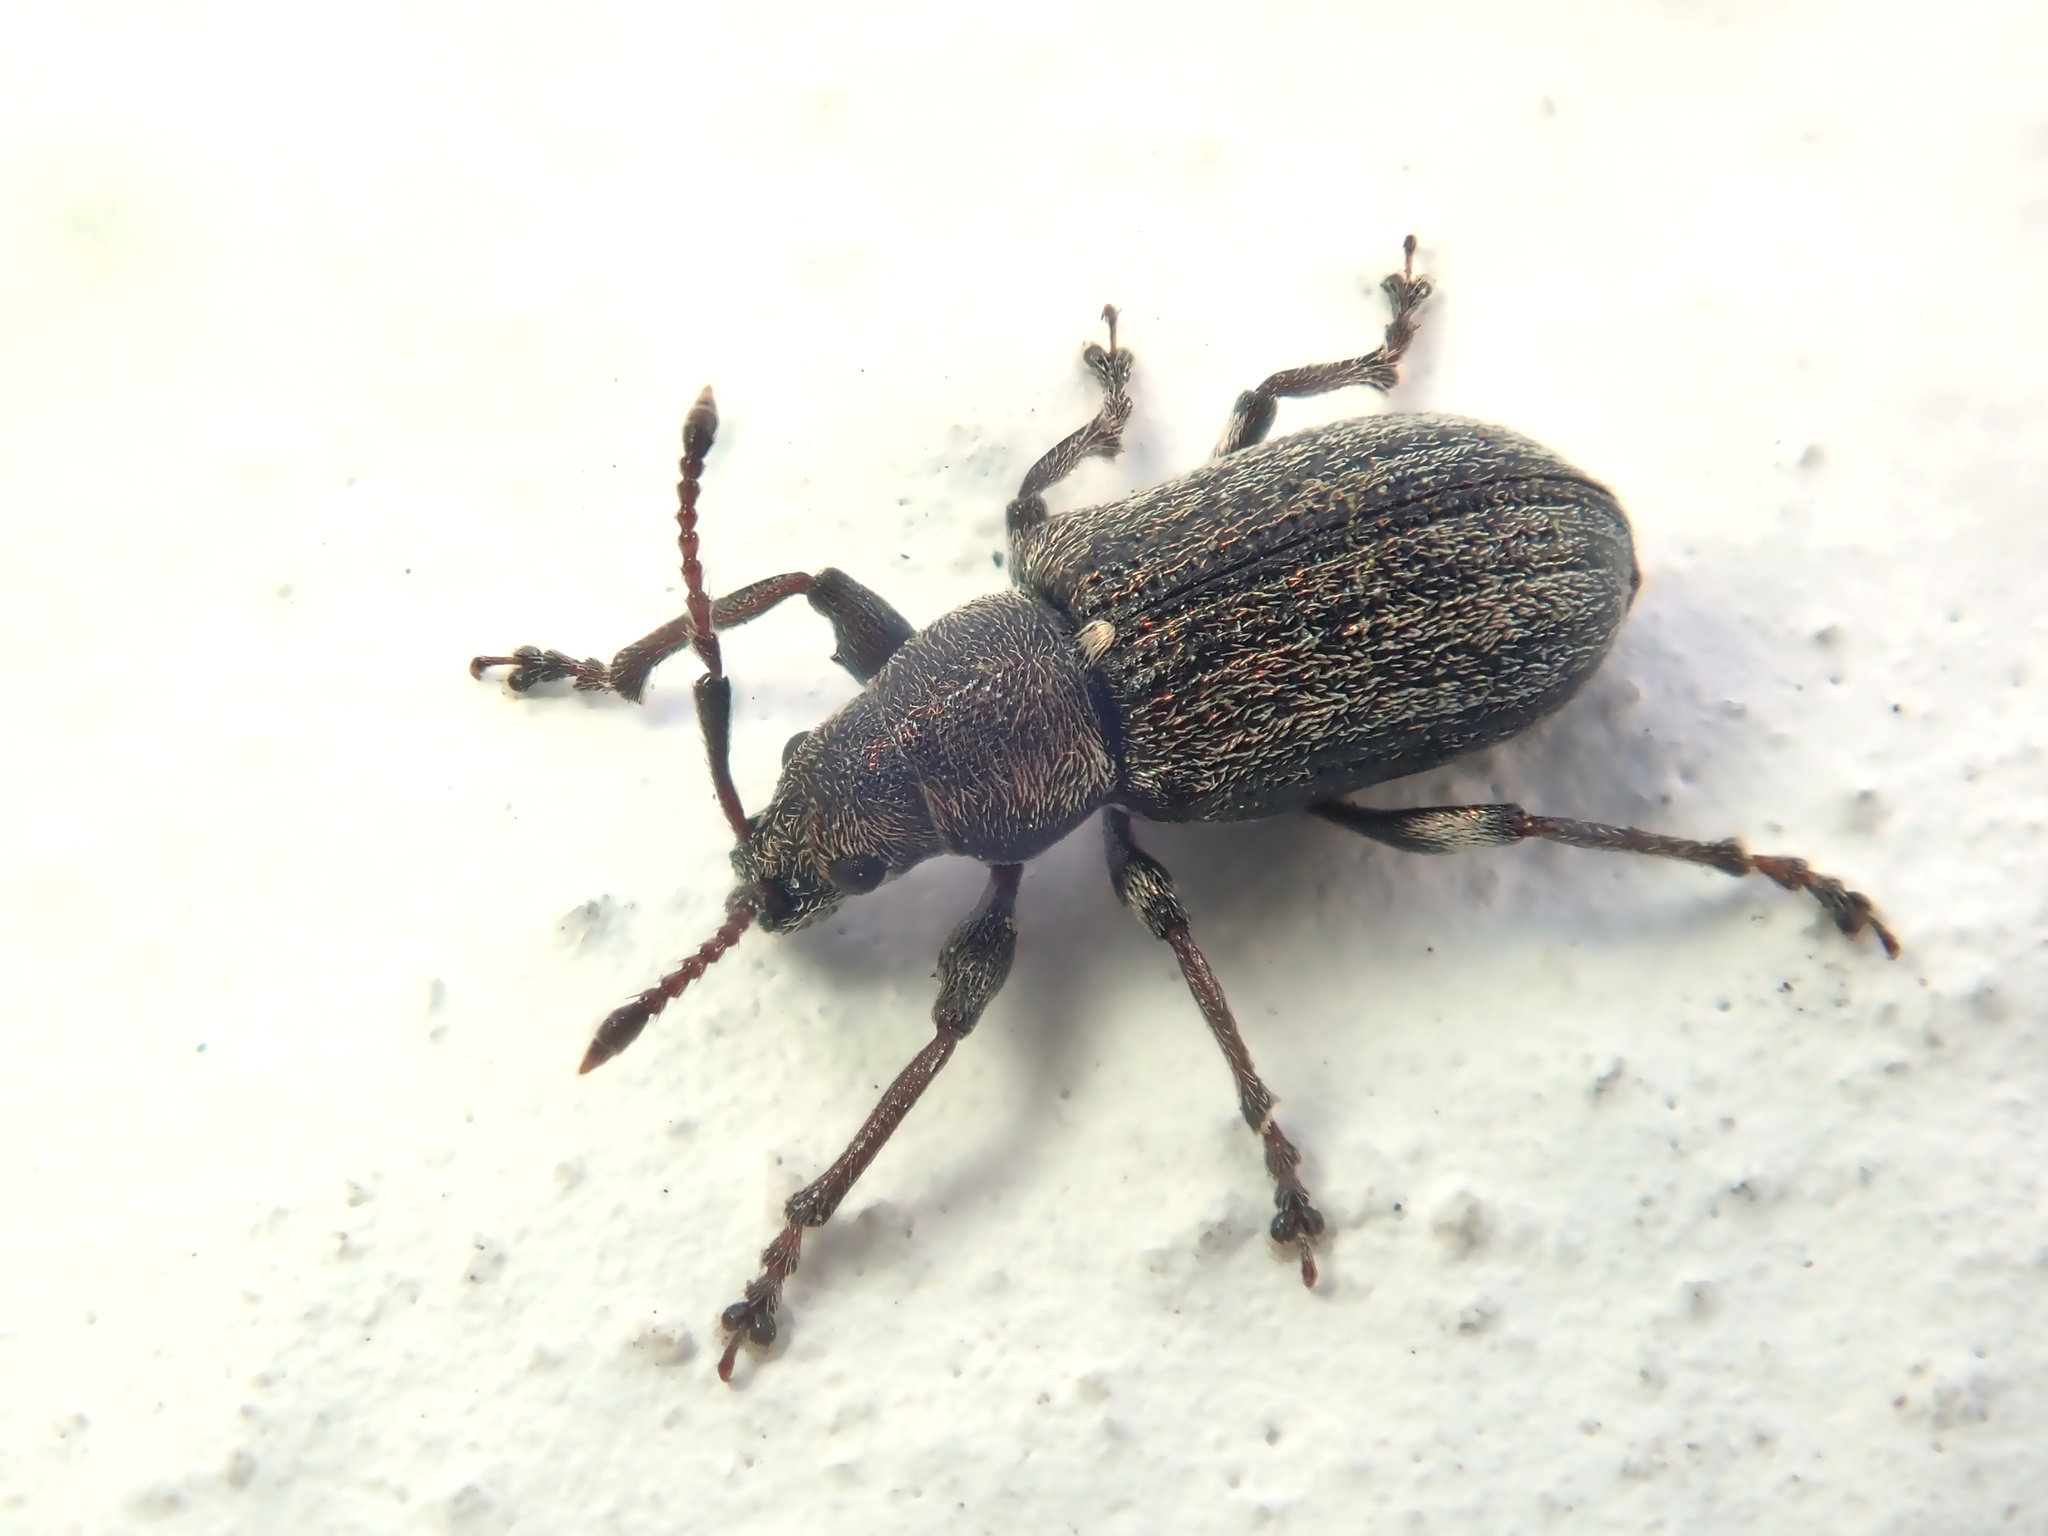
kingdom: Animalia
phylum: Arthropoda
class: Insecta
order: Coleoptera
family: Curculionidae
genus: Phyllobius
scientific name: Phyllobius pyri
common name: Common leaf weevil
